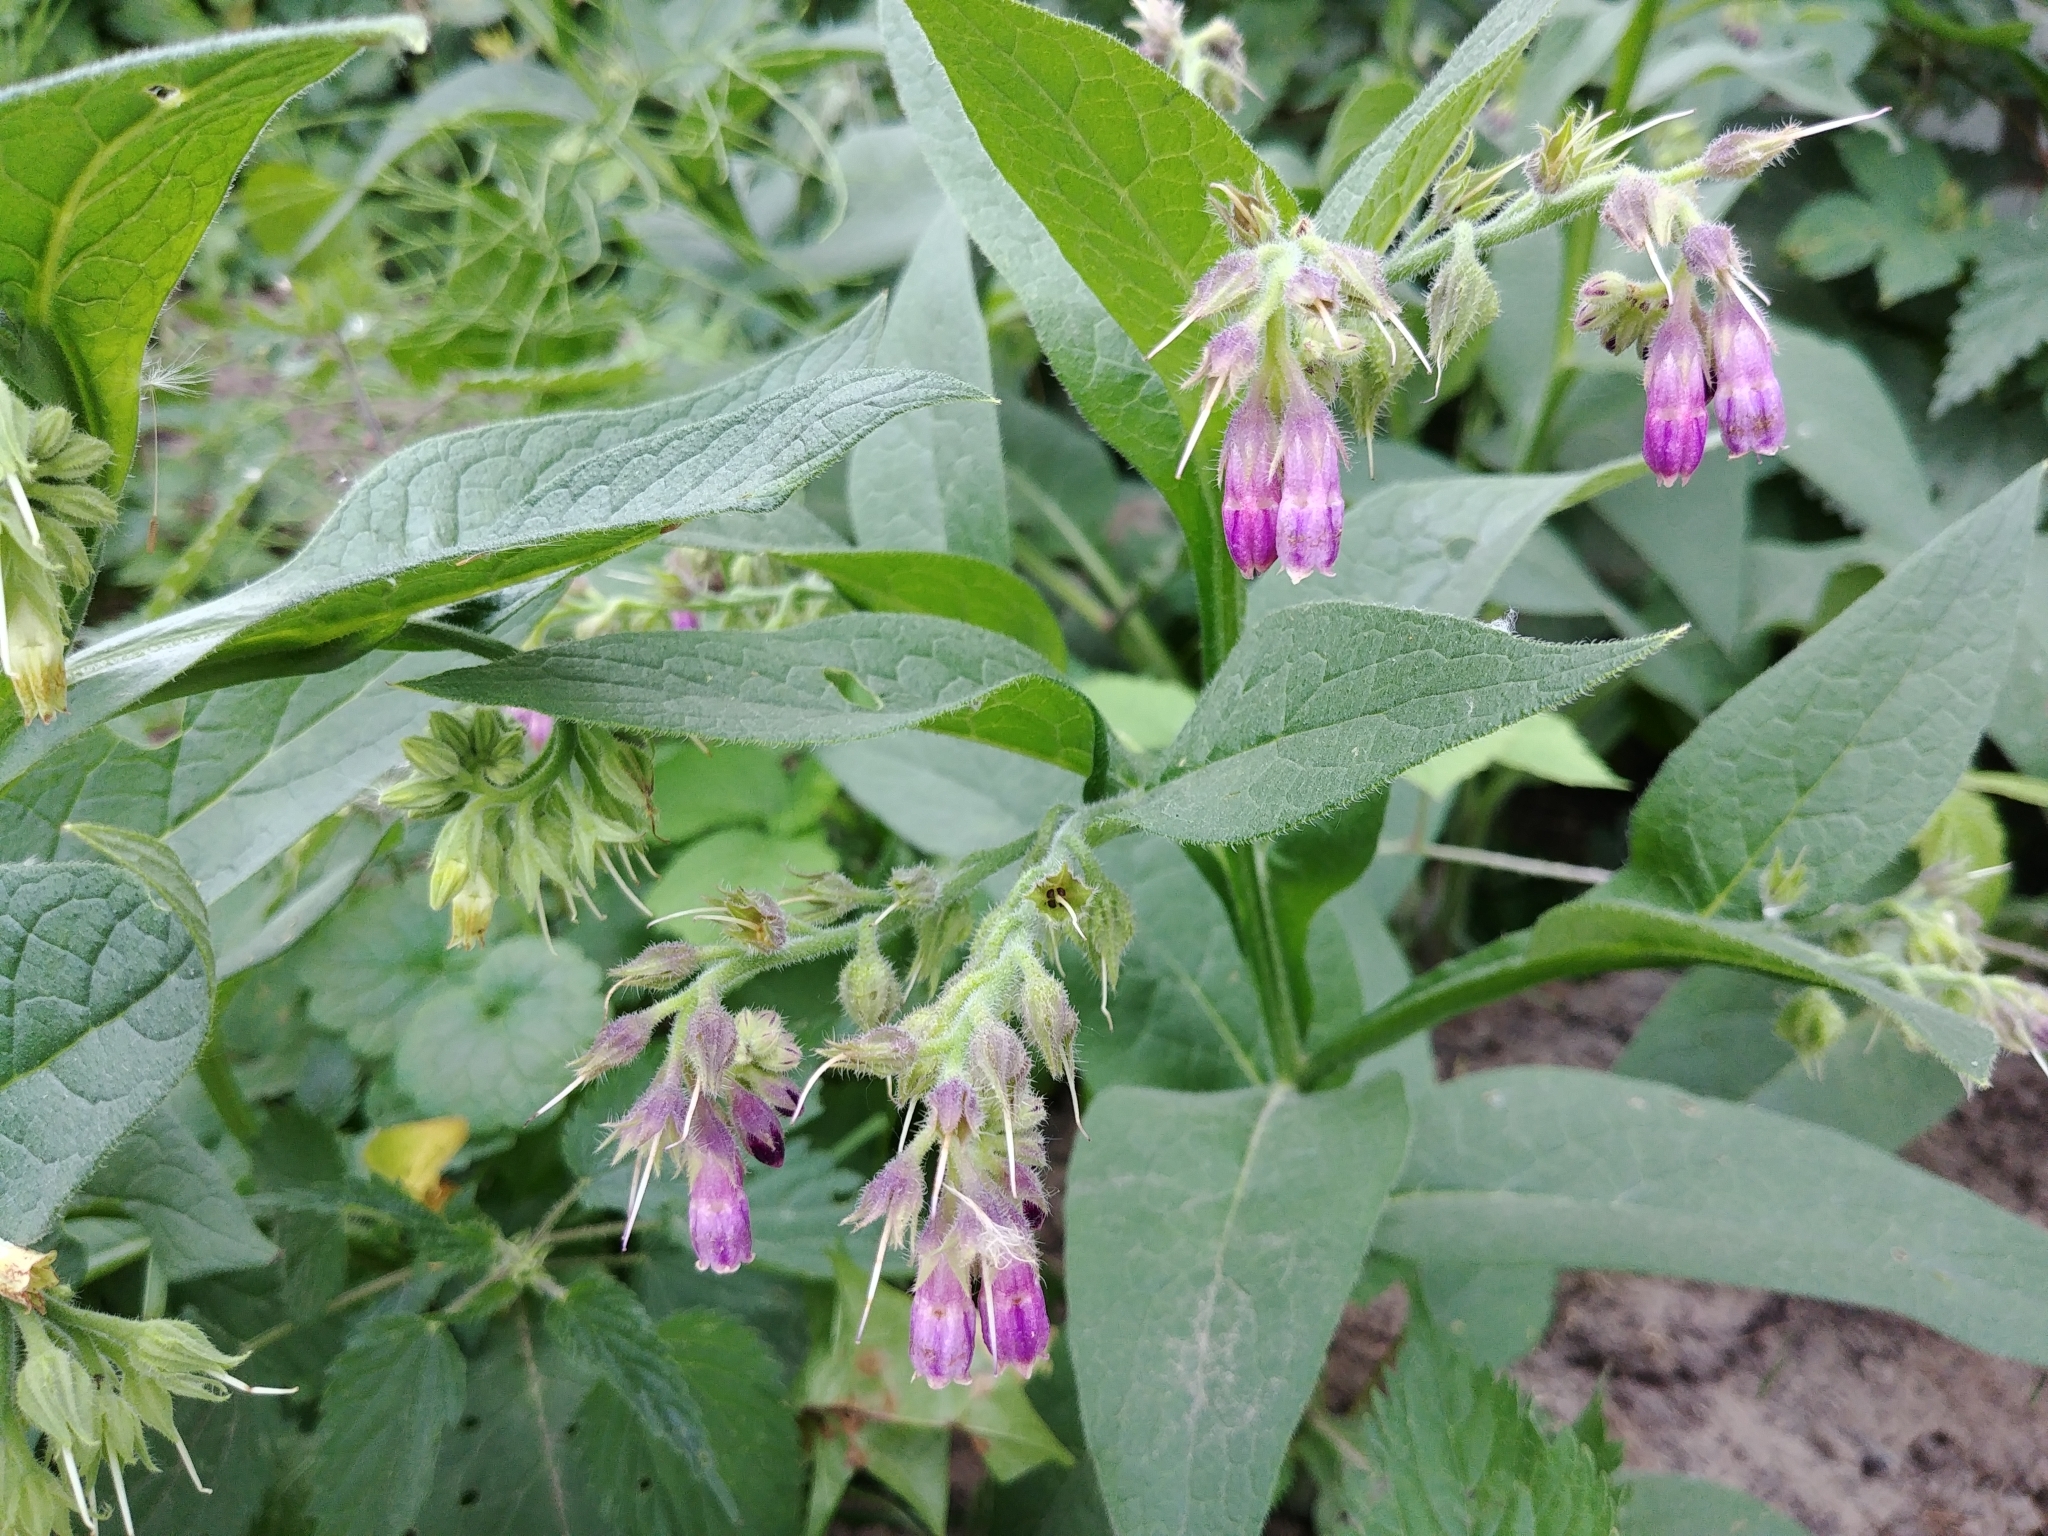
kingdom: Plantae
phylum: Tracheophyta
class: Magnoliopsida
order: Boraginales
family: Boraginaceae
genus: Symphytum
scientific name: Symphytum officinale
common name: Common comfrey
